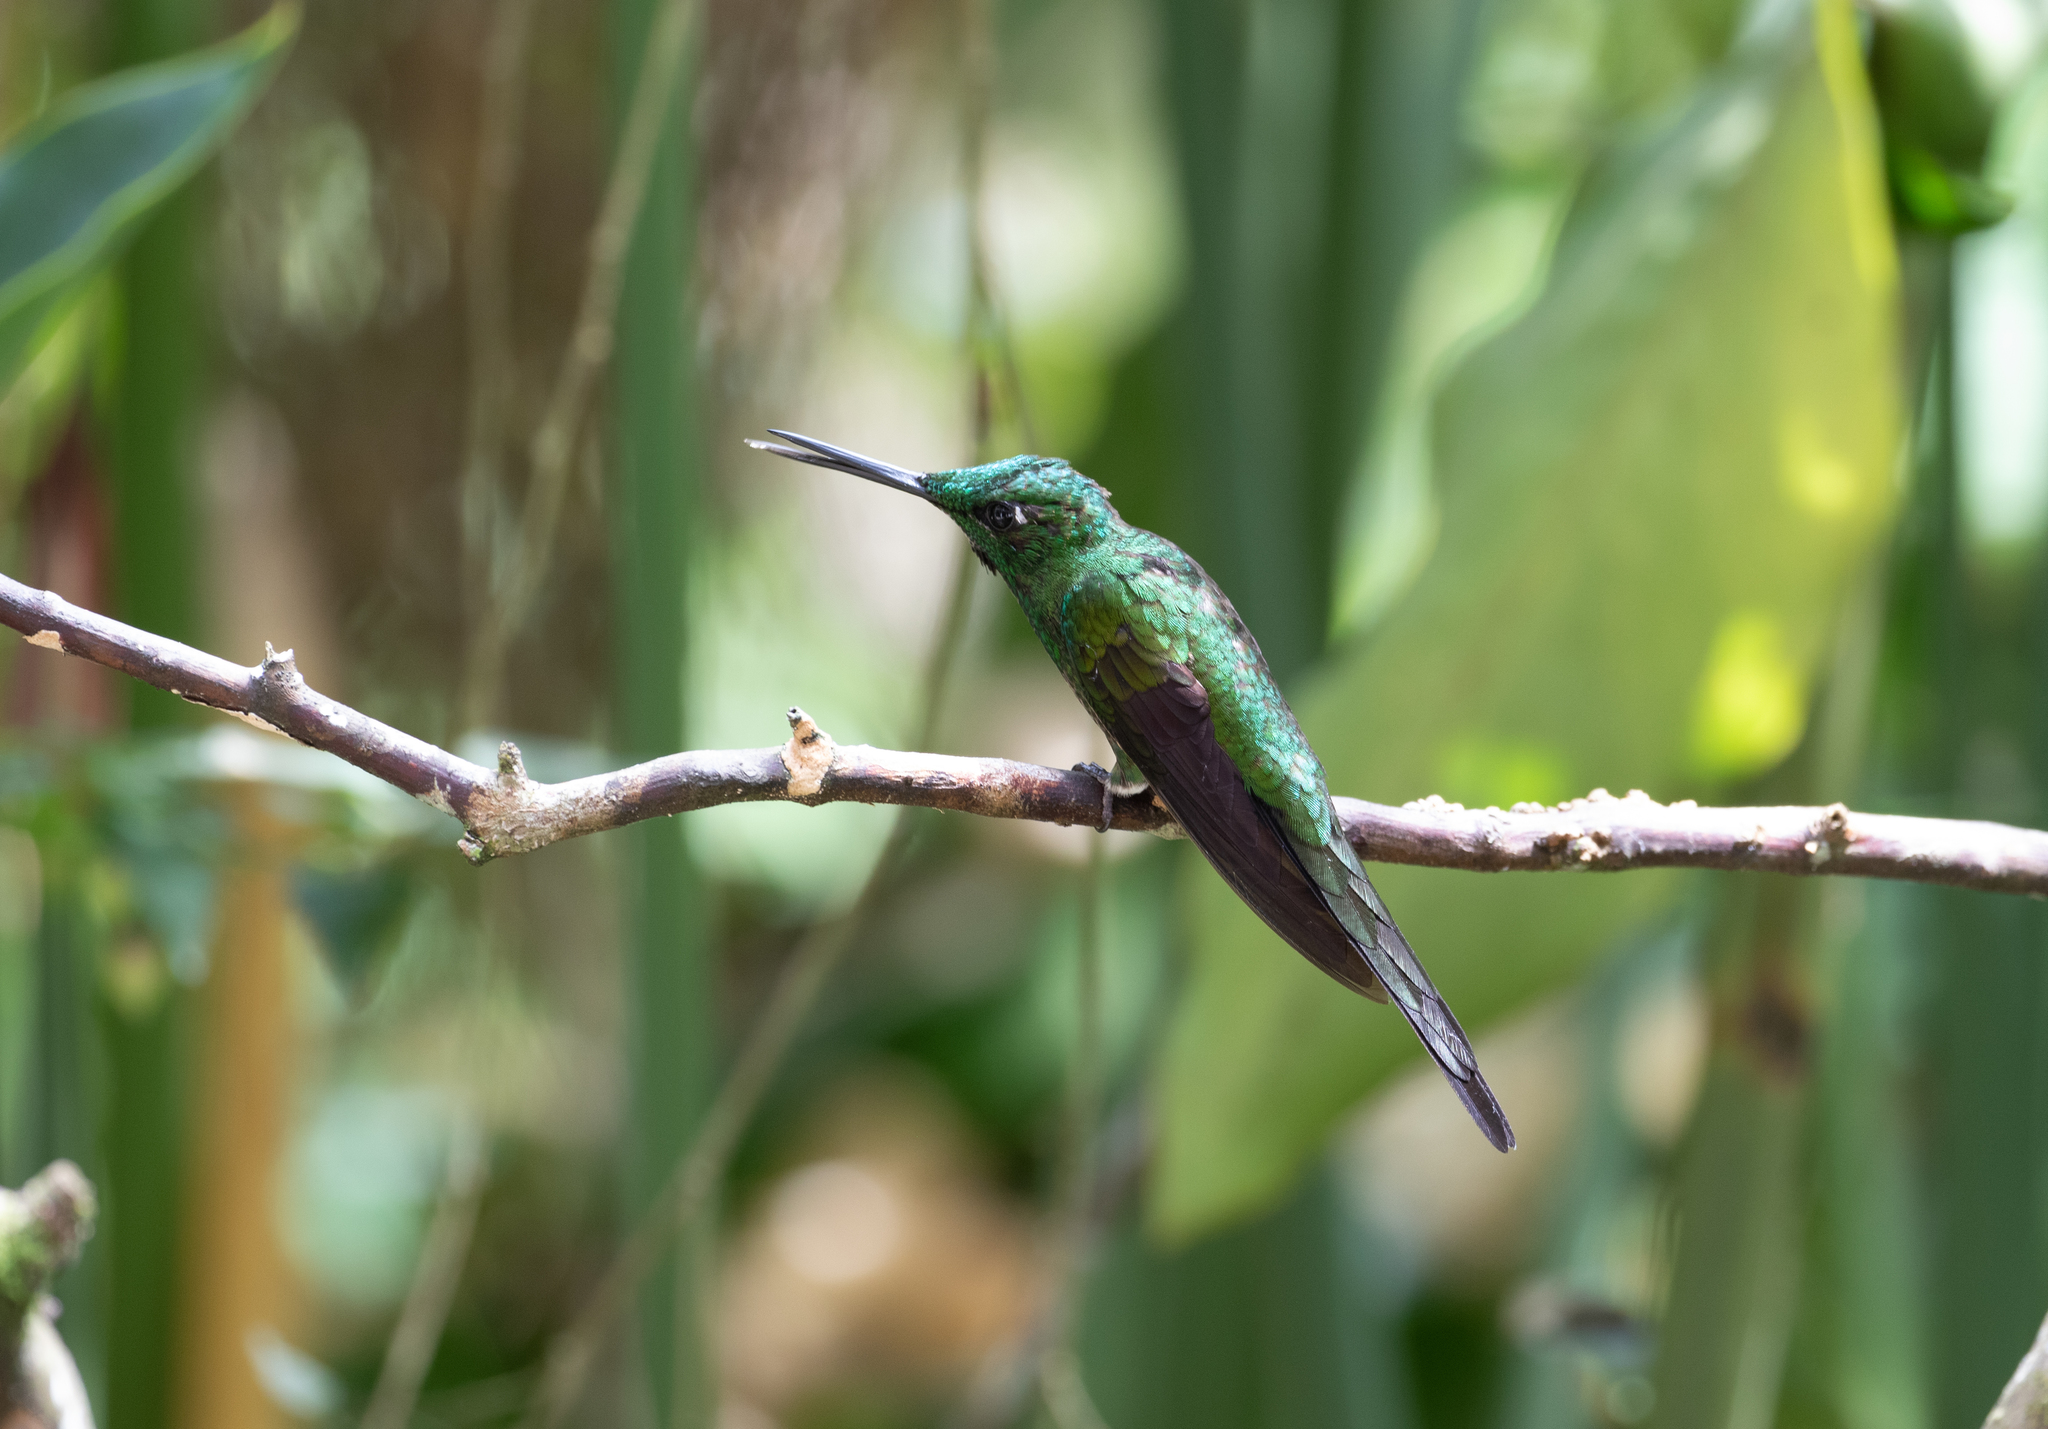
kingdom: Animalia
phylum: Chordata
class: Aves
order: Apodiformes
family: Trochilidae
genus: Heliodoxa
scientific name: Heliodoxa imperatrix
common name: Empress brilliant
